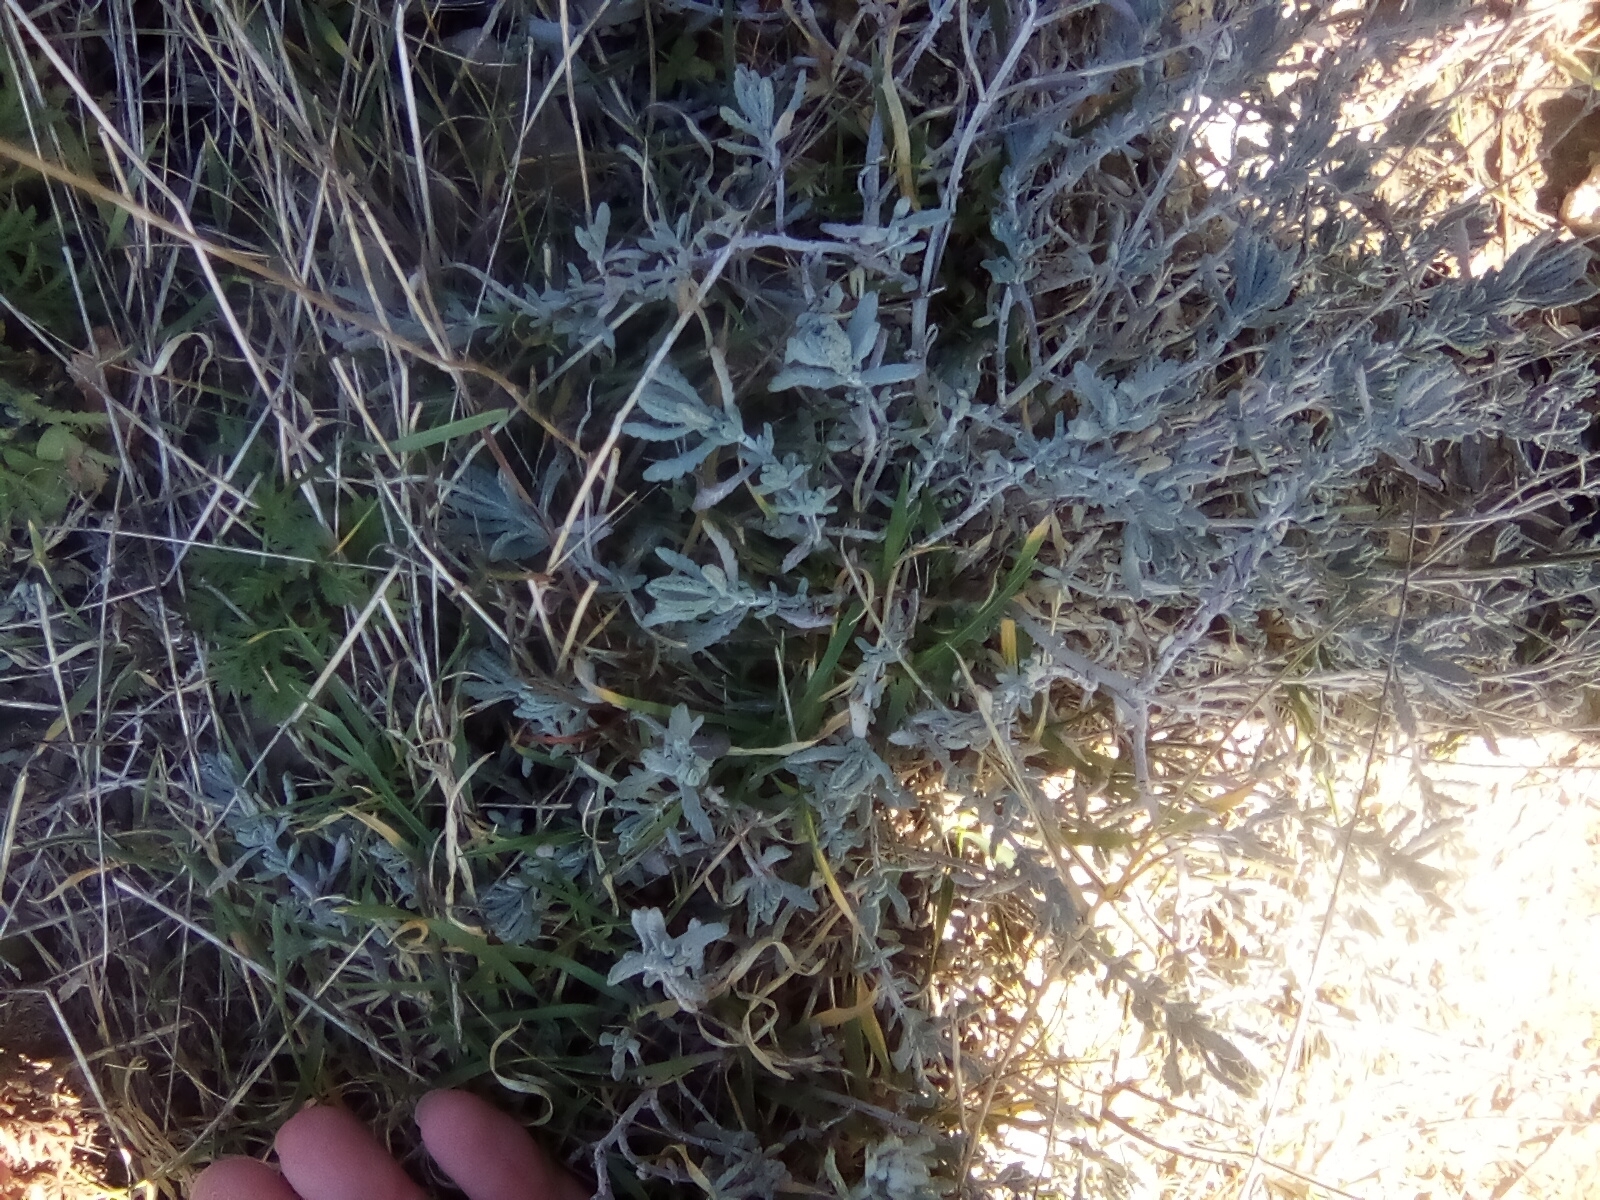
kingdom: Plantae
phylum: Tracheophyta
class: Magnoliopsida
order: Lamiales
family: Lamiaceae
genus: Teucrium
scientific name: Teucrium polium
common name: Poley
